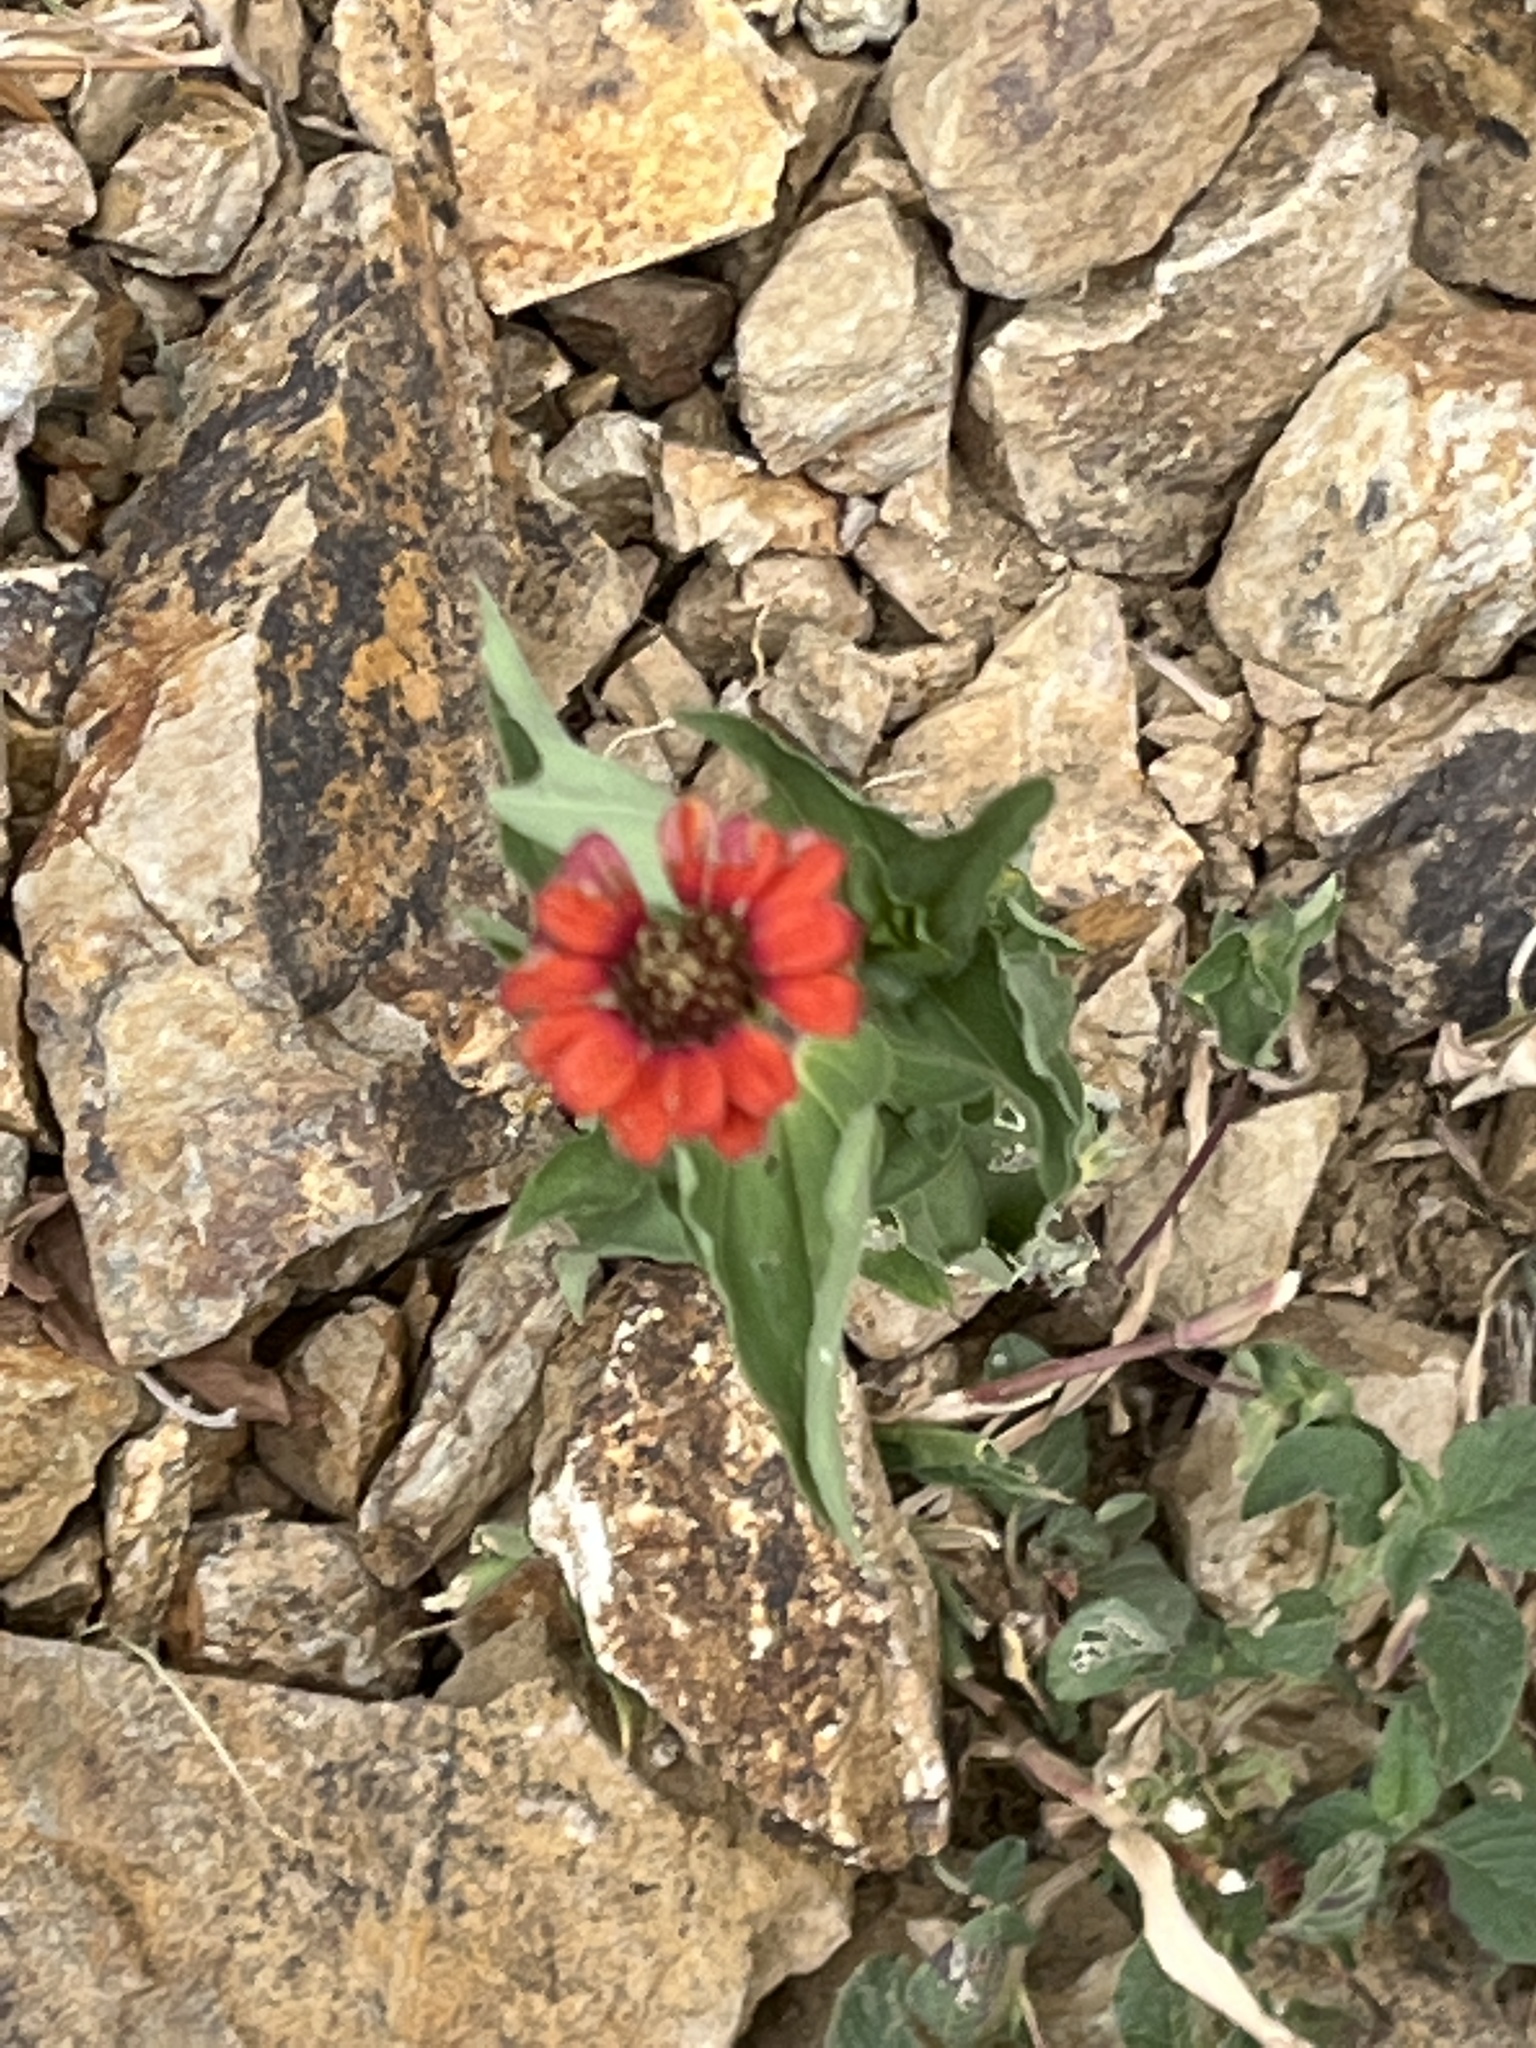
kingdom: Plantae
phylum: Tracheophyta
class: Magnoliopsida
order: Asterales
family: Asteraceae
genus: Zinnia
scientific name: Zinnia peruviana
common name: Peruvian zinnia
